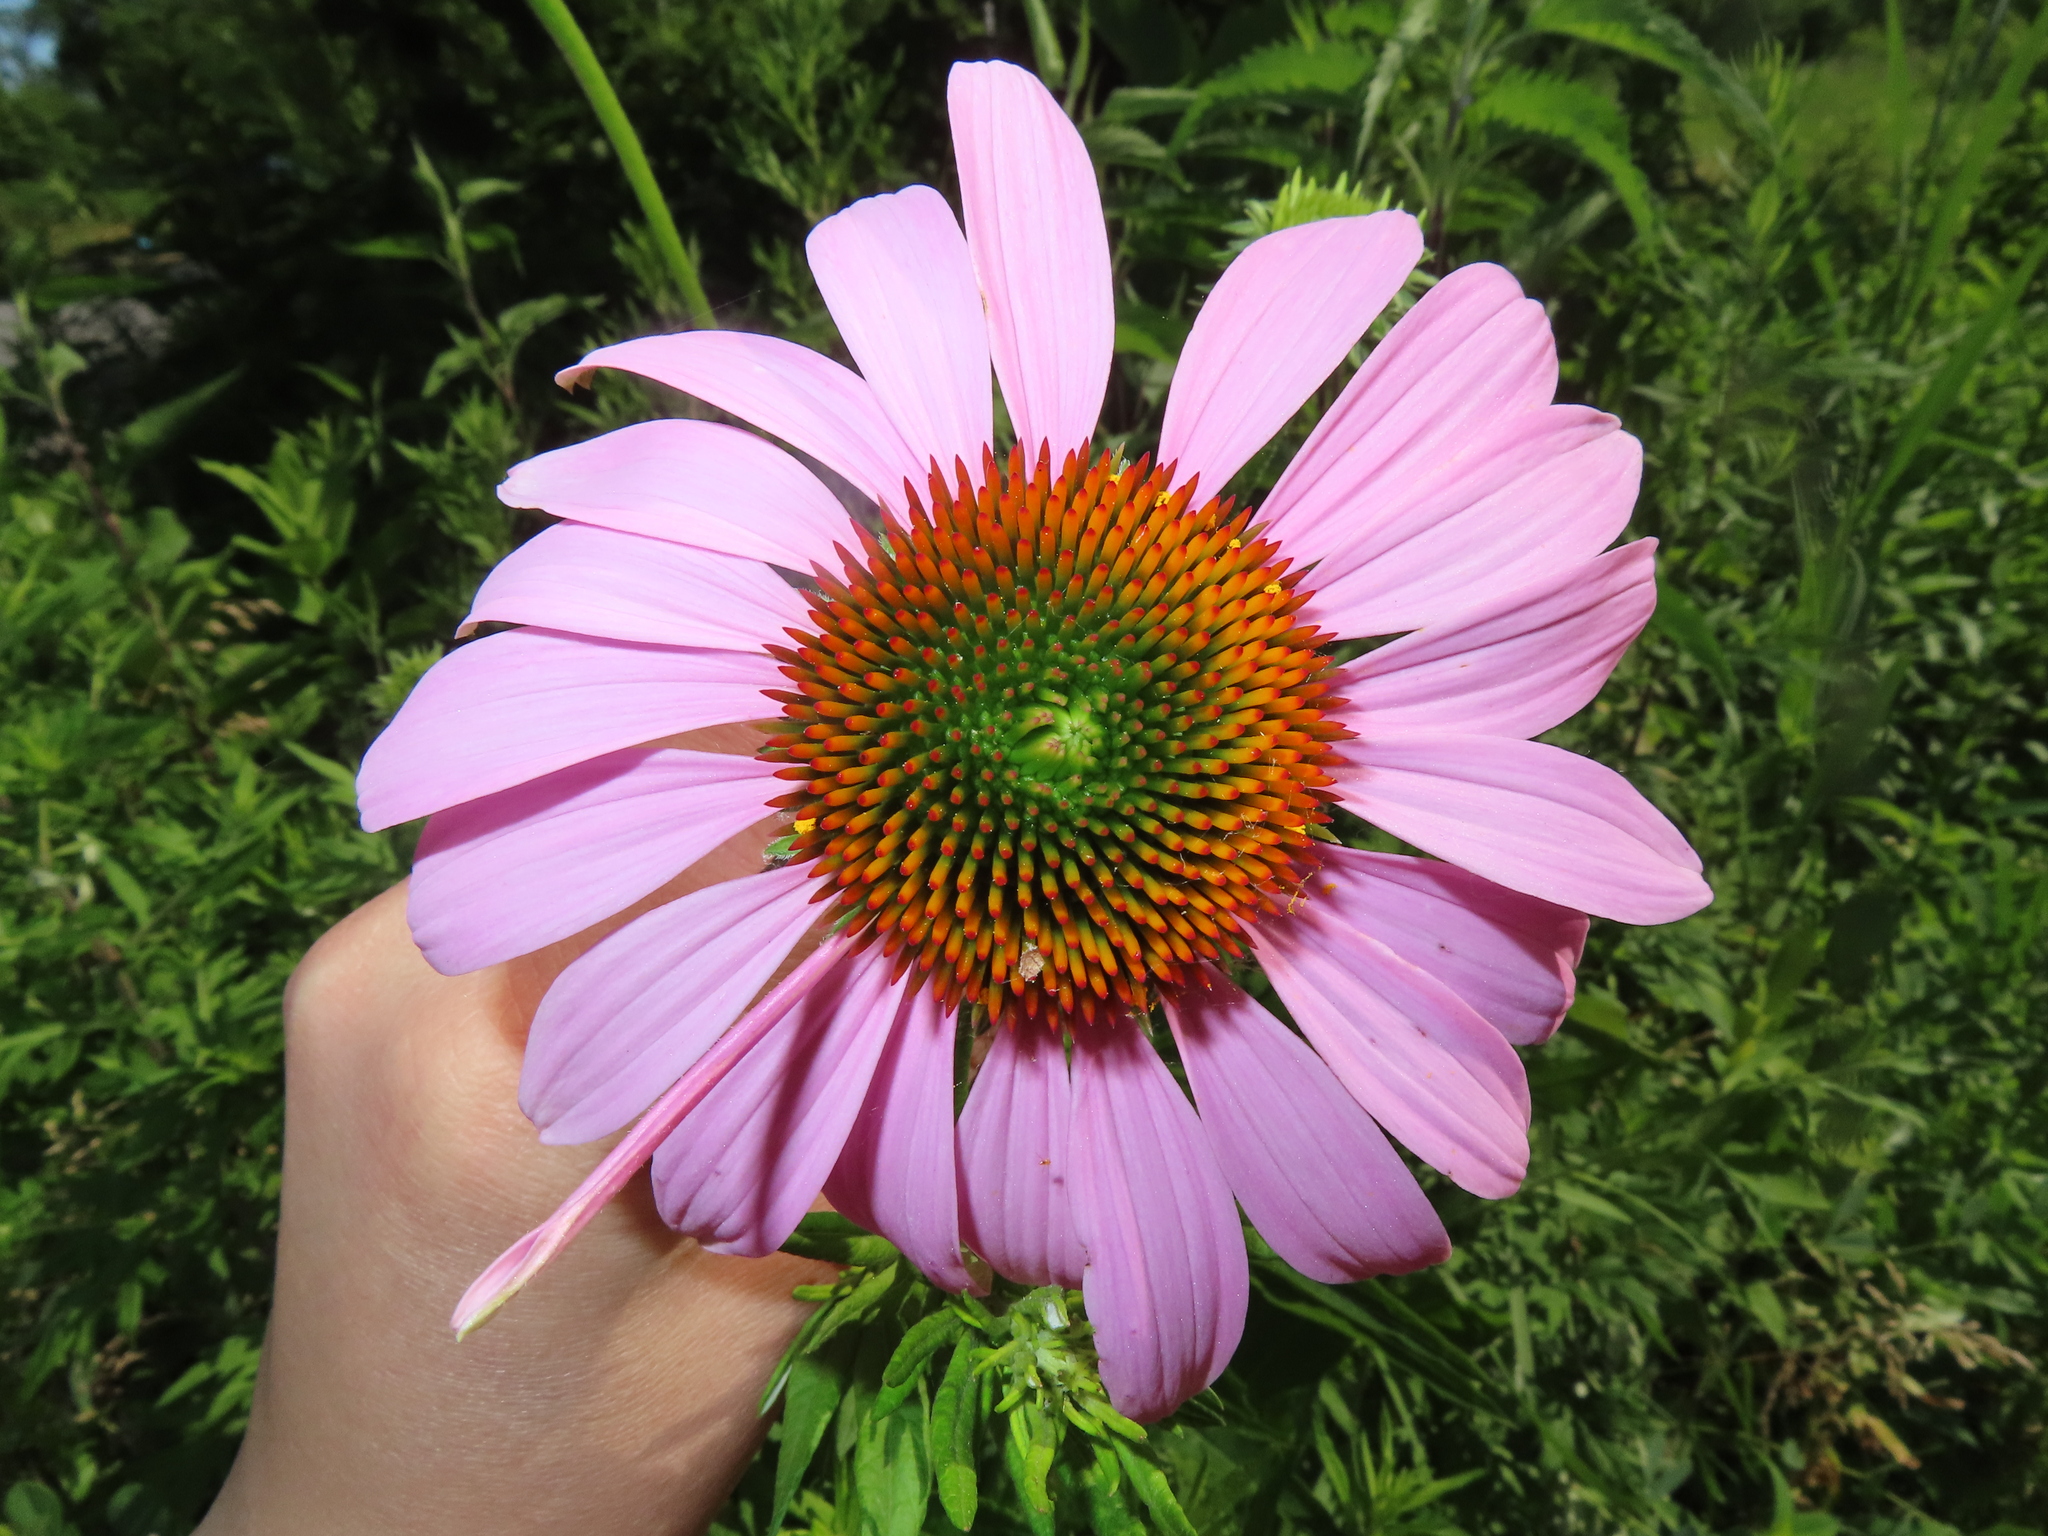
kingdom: Plantae
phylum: Tracheophyta
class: Magnoliopsida
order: Asterales
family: Asteraceae
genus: Echinacea
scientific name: Echinacea purpurea
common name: Broad-leaved purple coneflower
